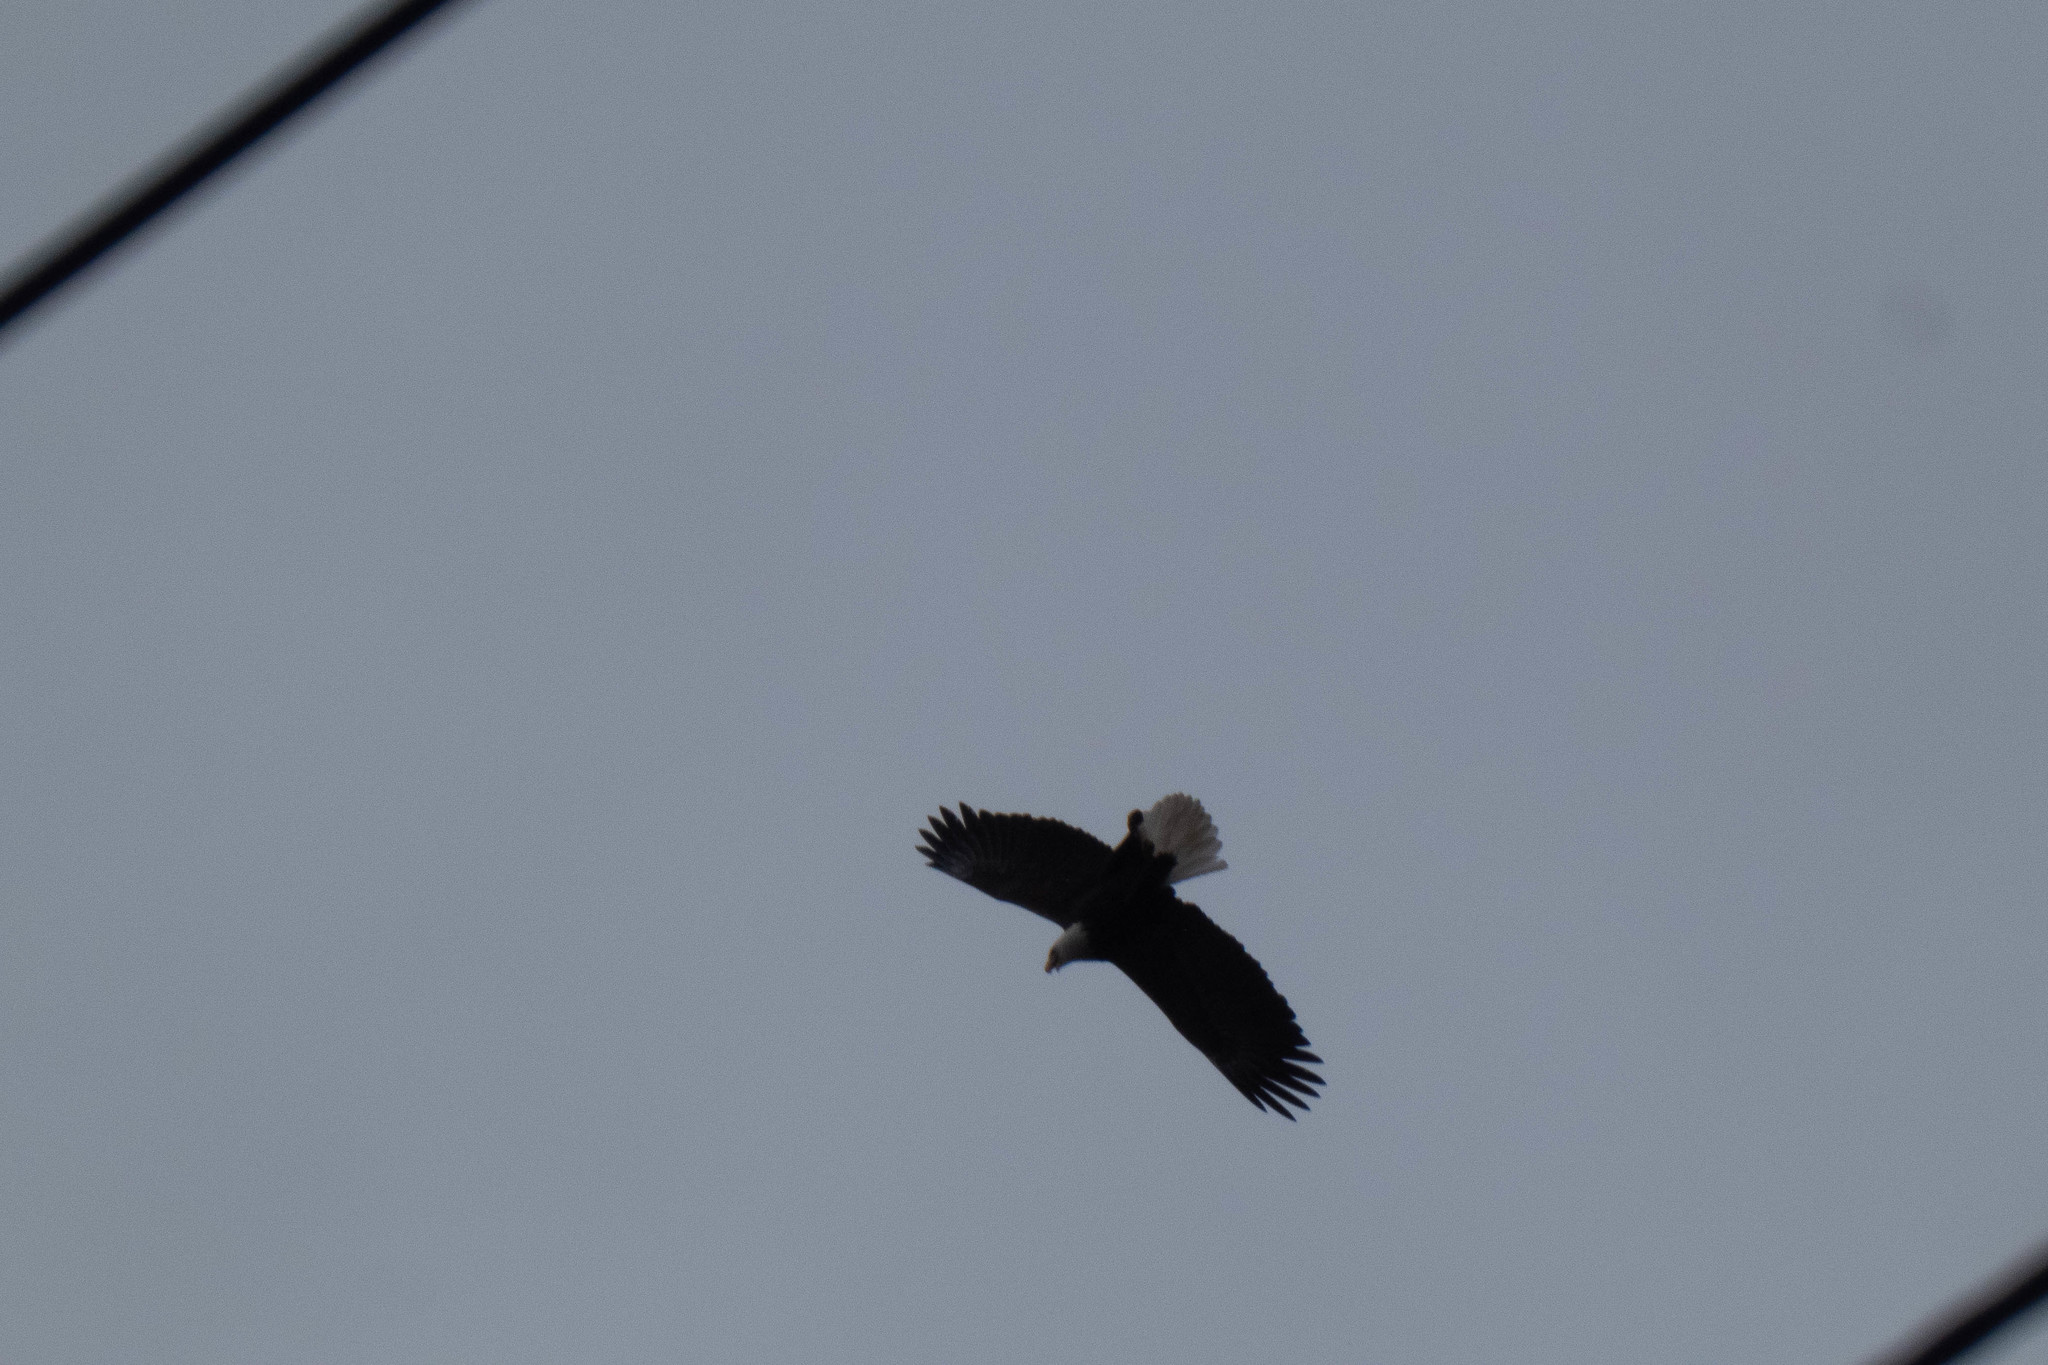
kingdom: Animalia
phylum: Chordata
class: Aves
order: Accipitriformes
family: Accipitridae
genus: Haliaeetus
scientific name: Haliaeetus leucocephalus
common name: Bald eagle
